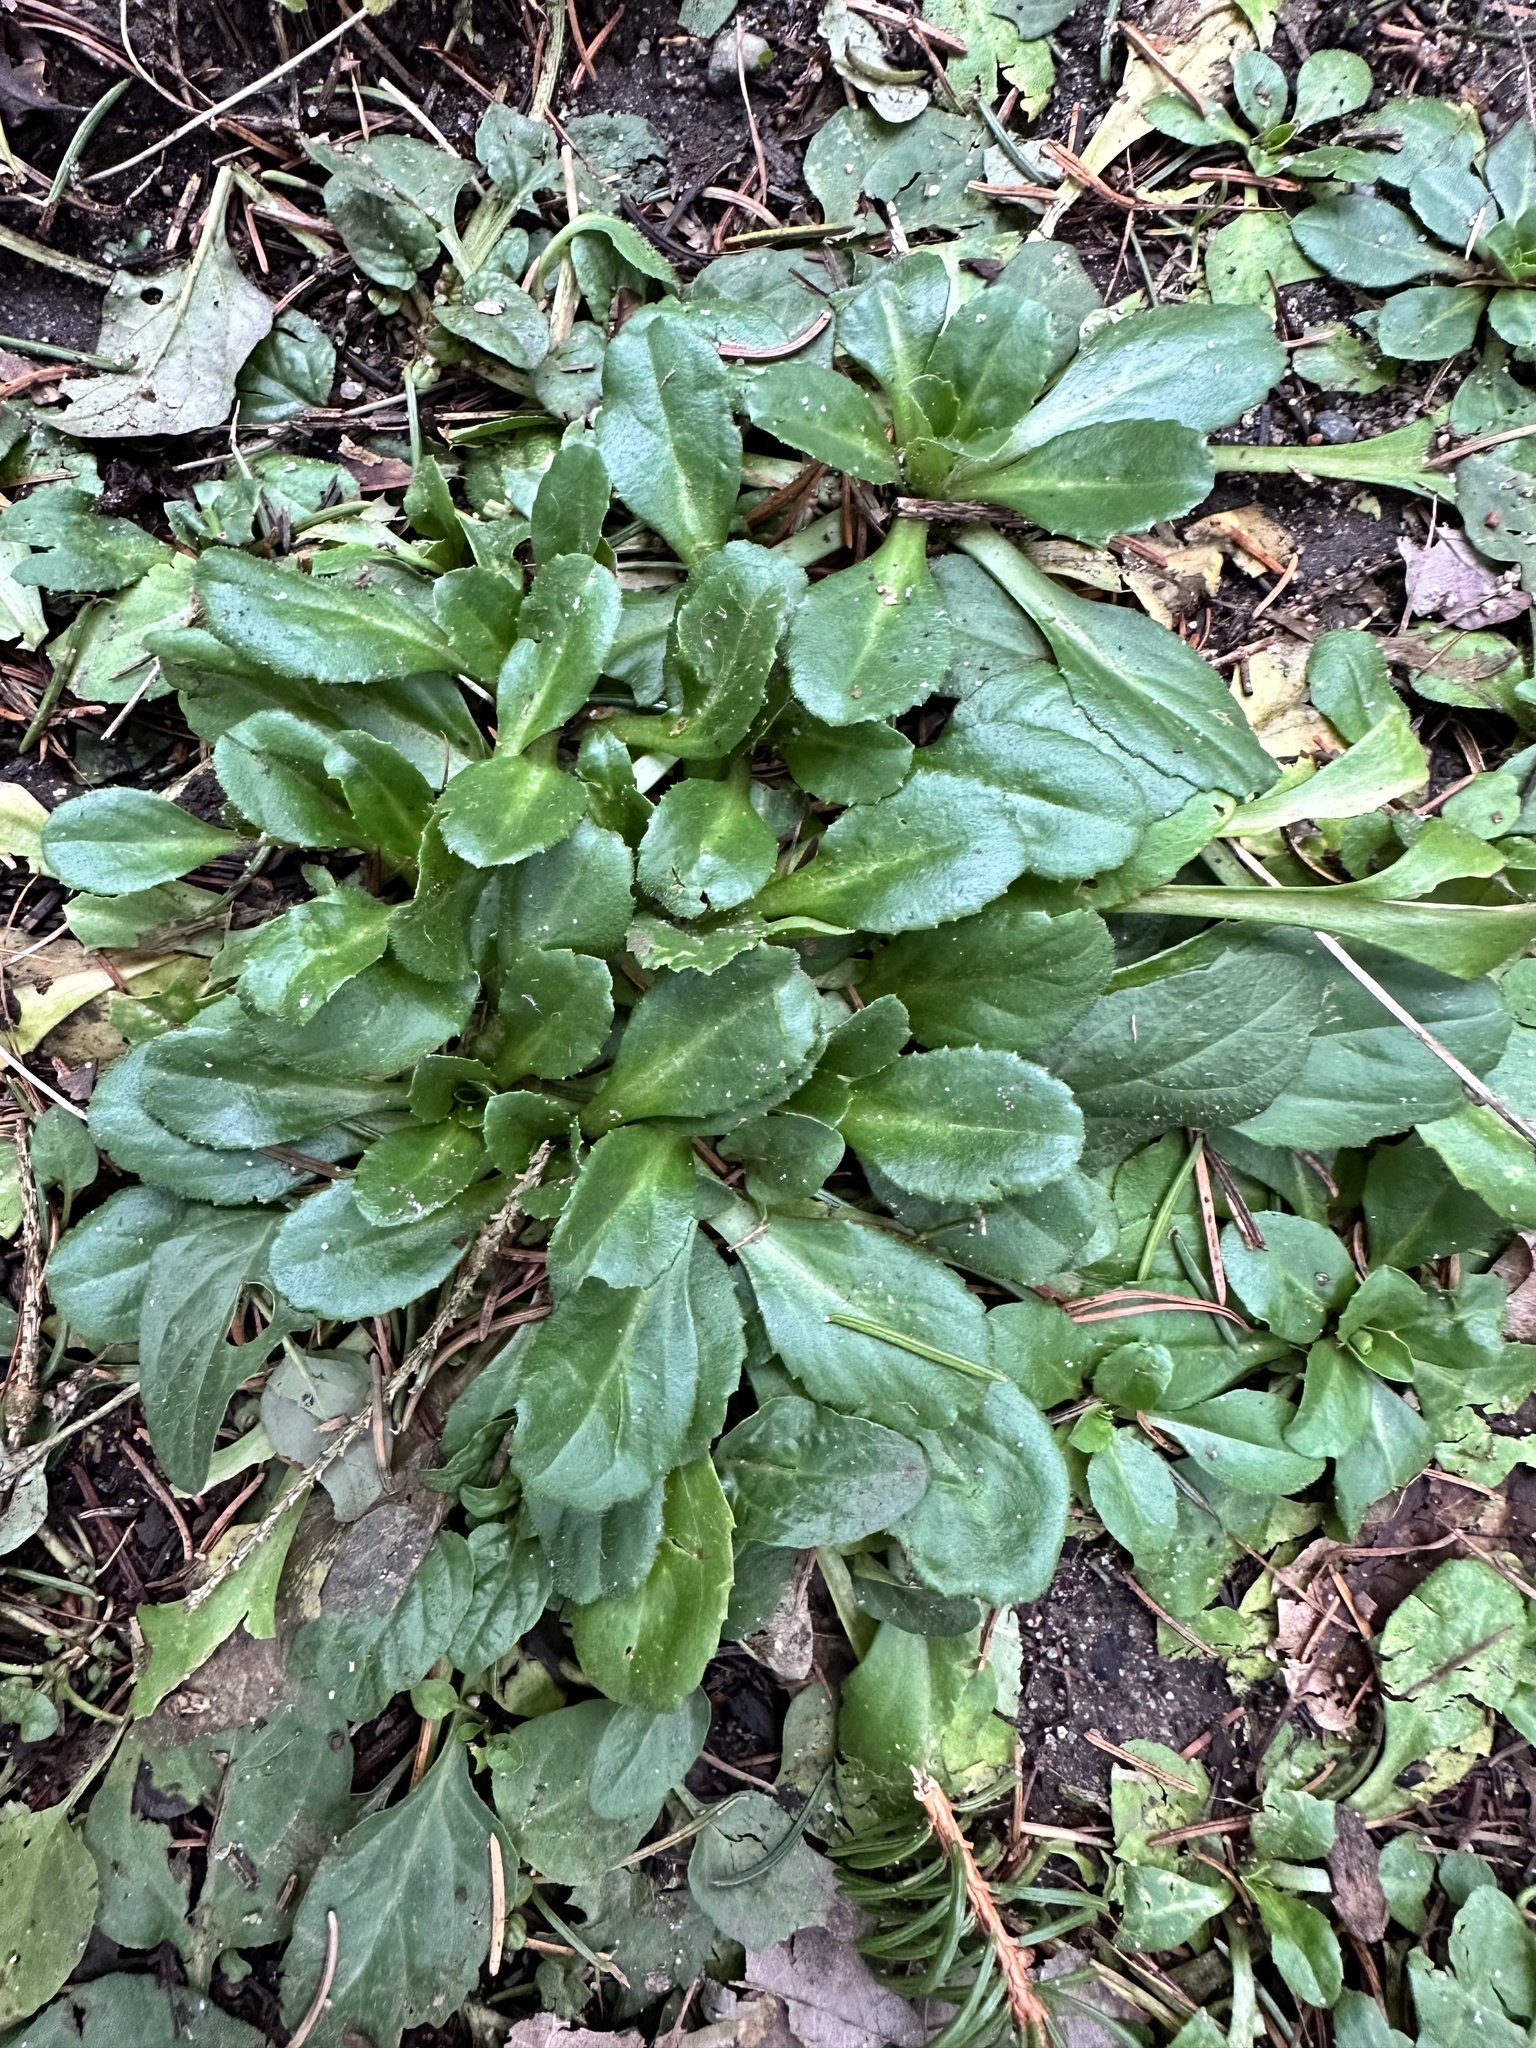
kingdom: Plantae
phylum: Tracheophyta
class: Magnoliopsida
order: Asterales
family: Asteraceae
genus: Bellis
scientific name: Bellis perennis
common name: Lawndaisy
